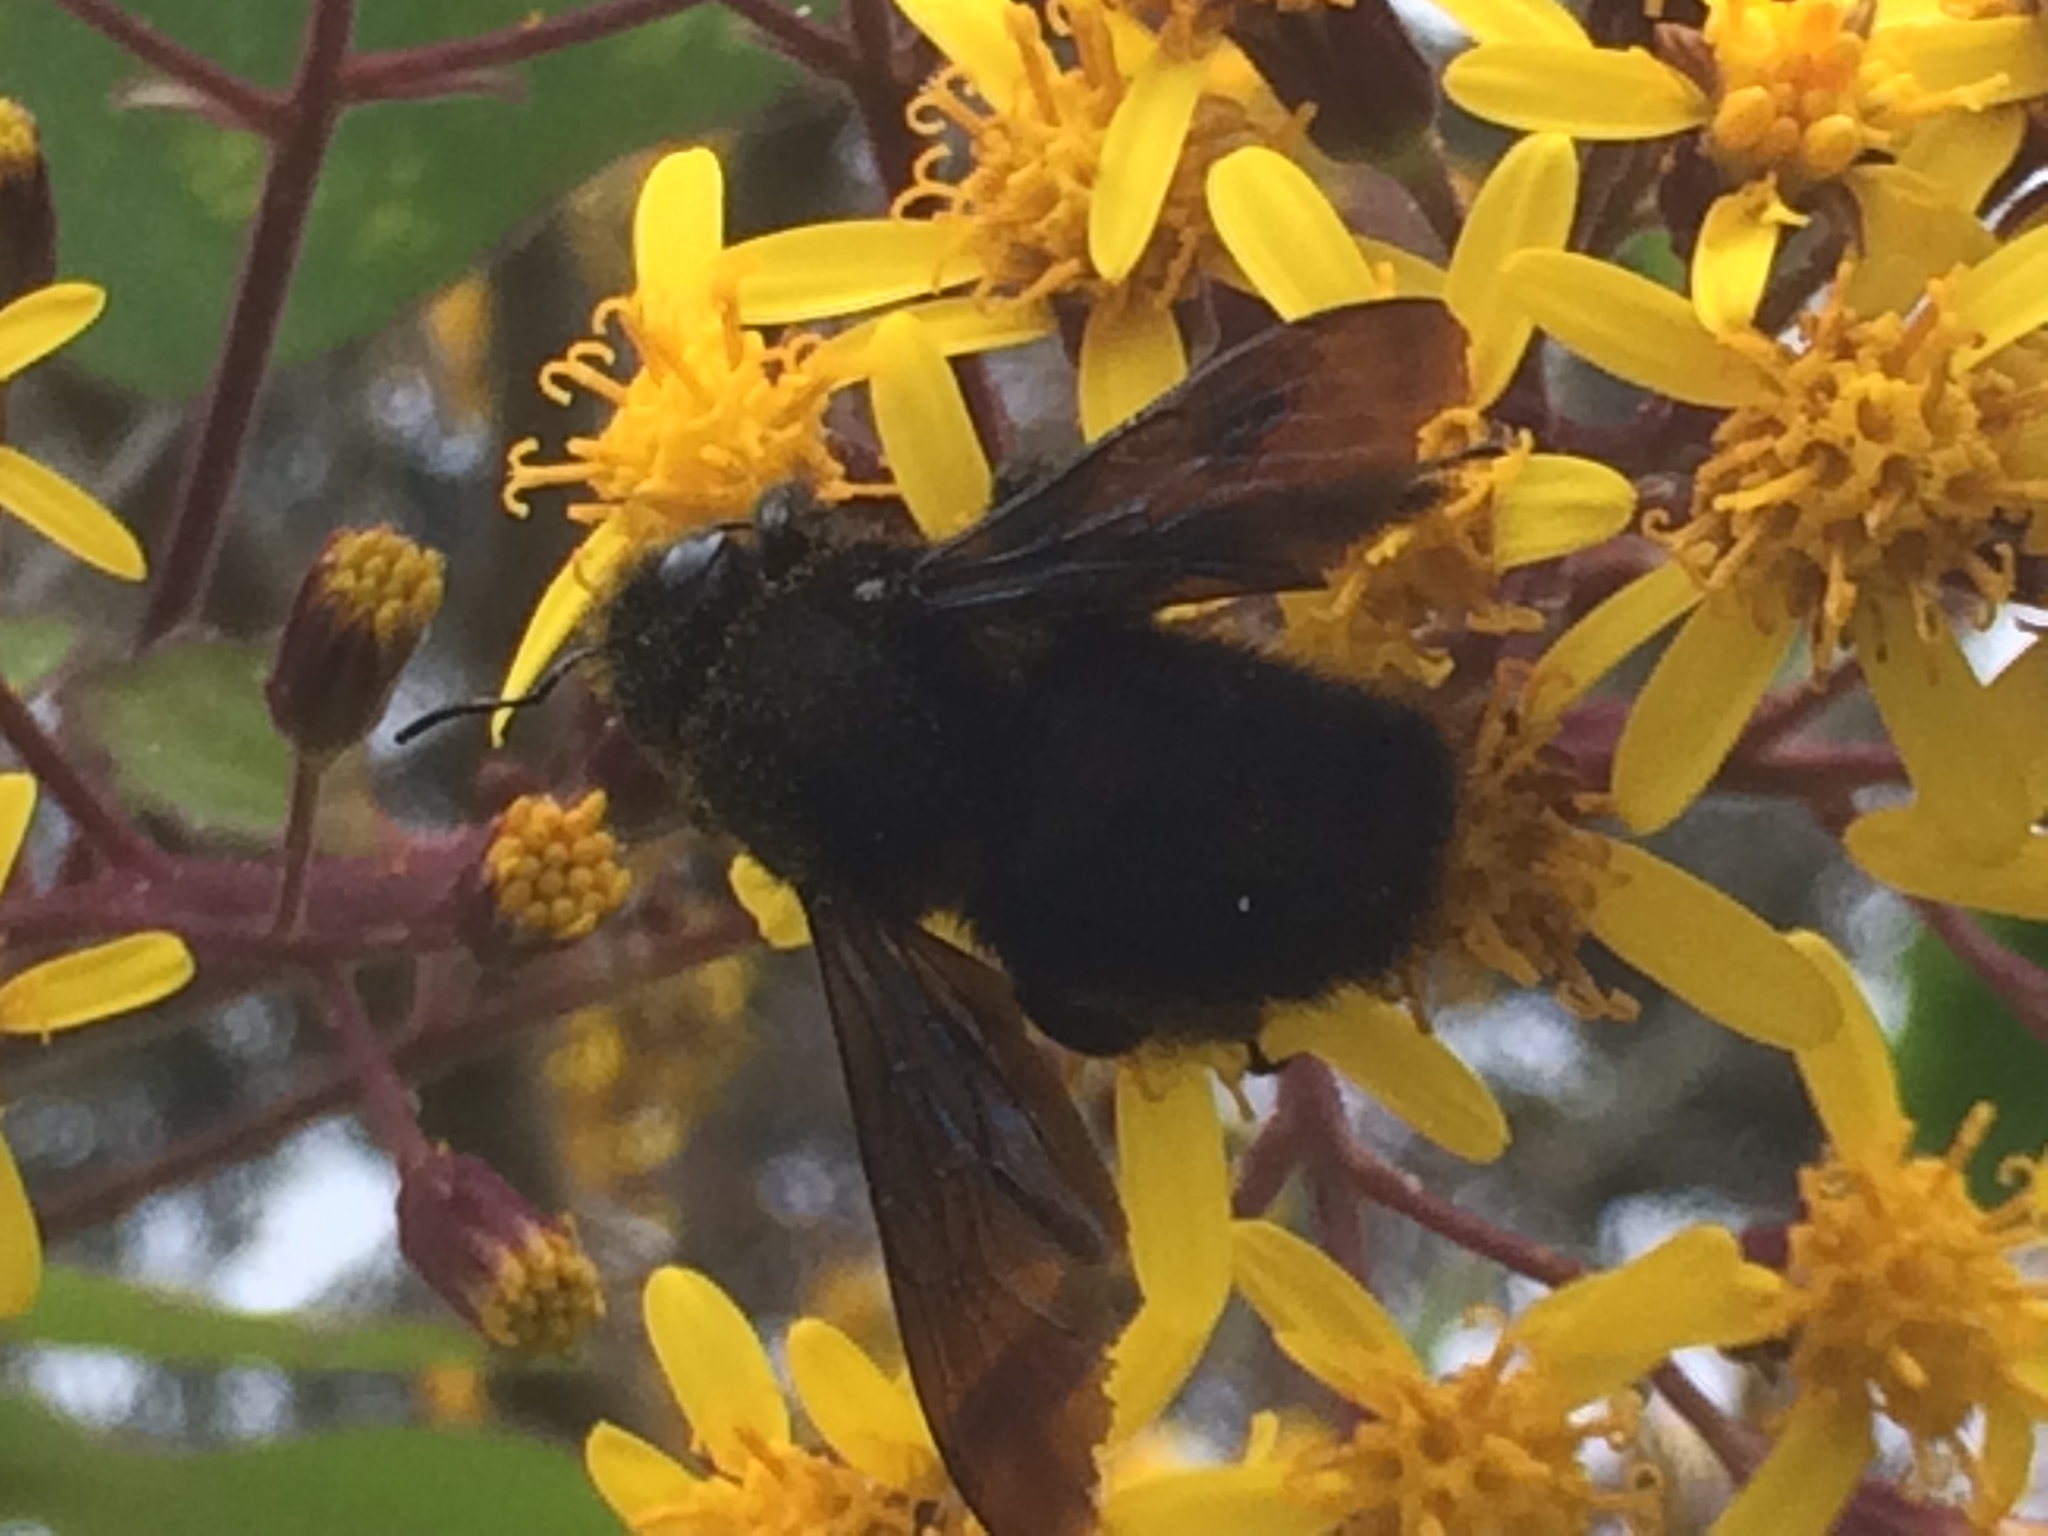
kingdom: Animalia
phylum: Arthropoda
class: Insecta
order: Hymenoptera
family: Apidae
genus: Xylocopa
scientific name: Xylocopa violacea
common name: Violet carpenter bee
